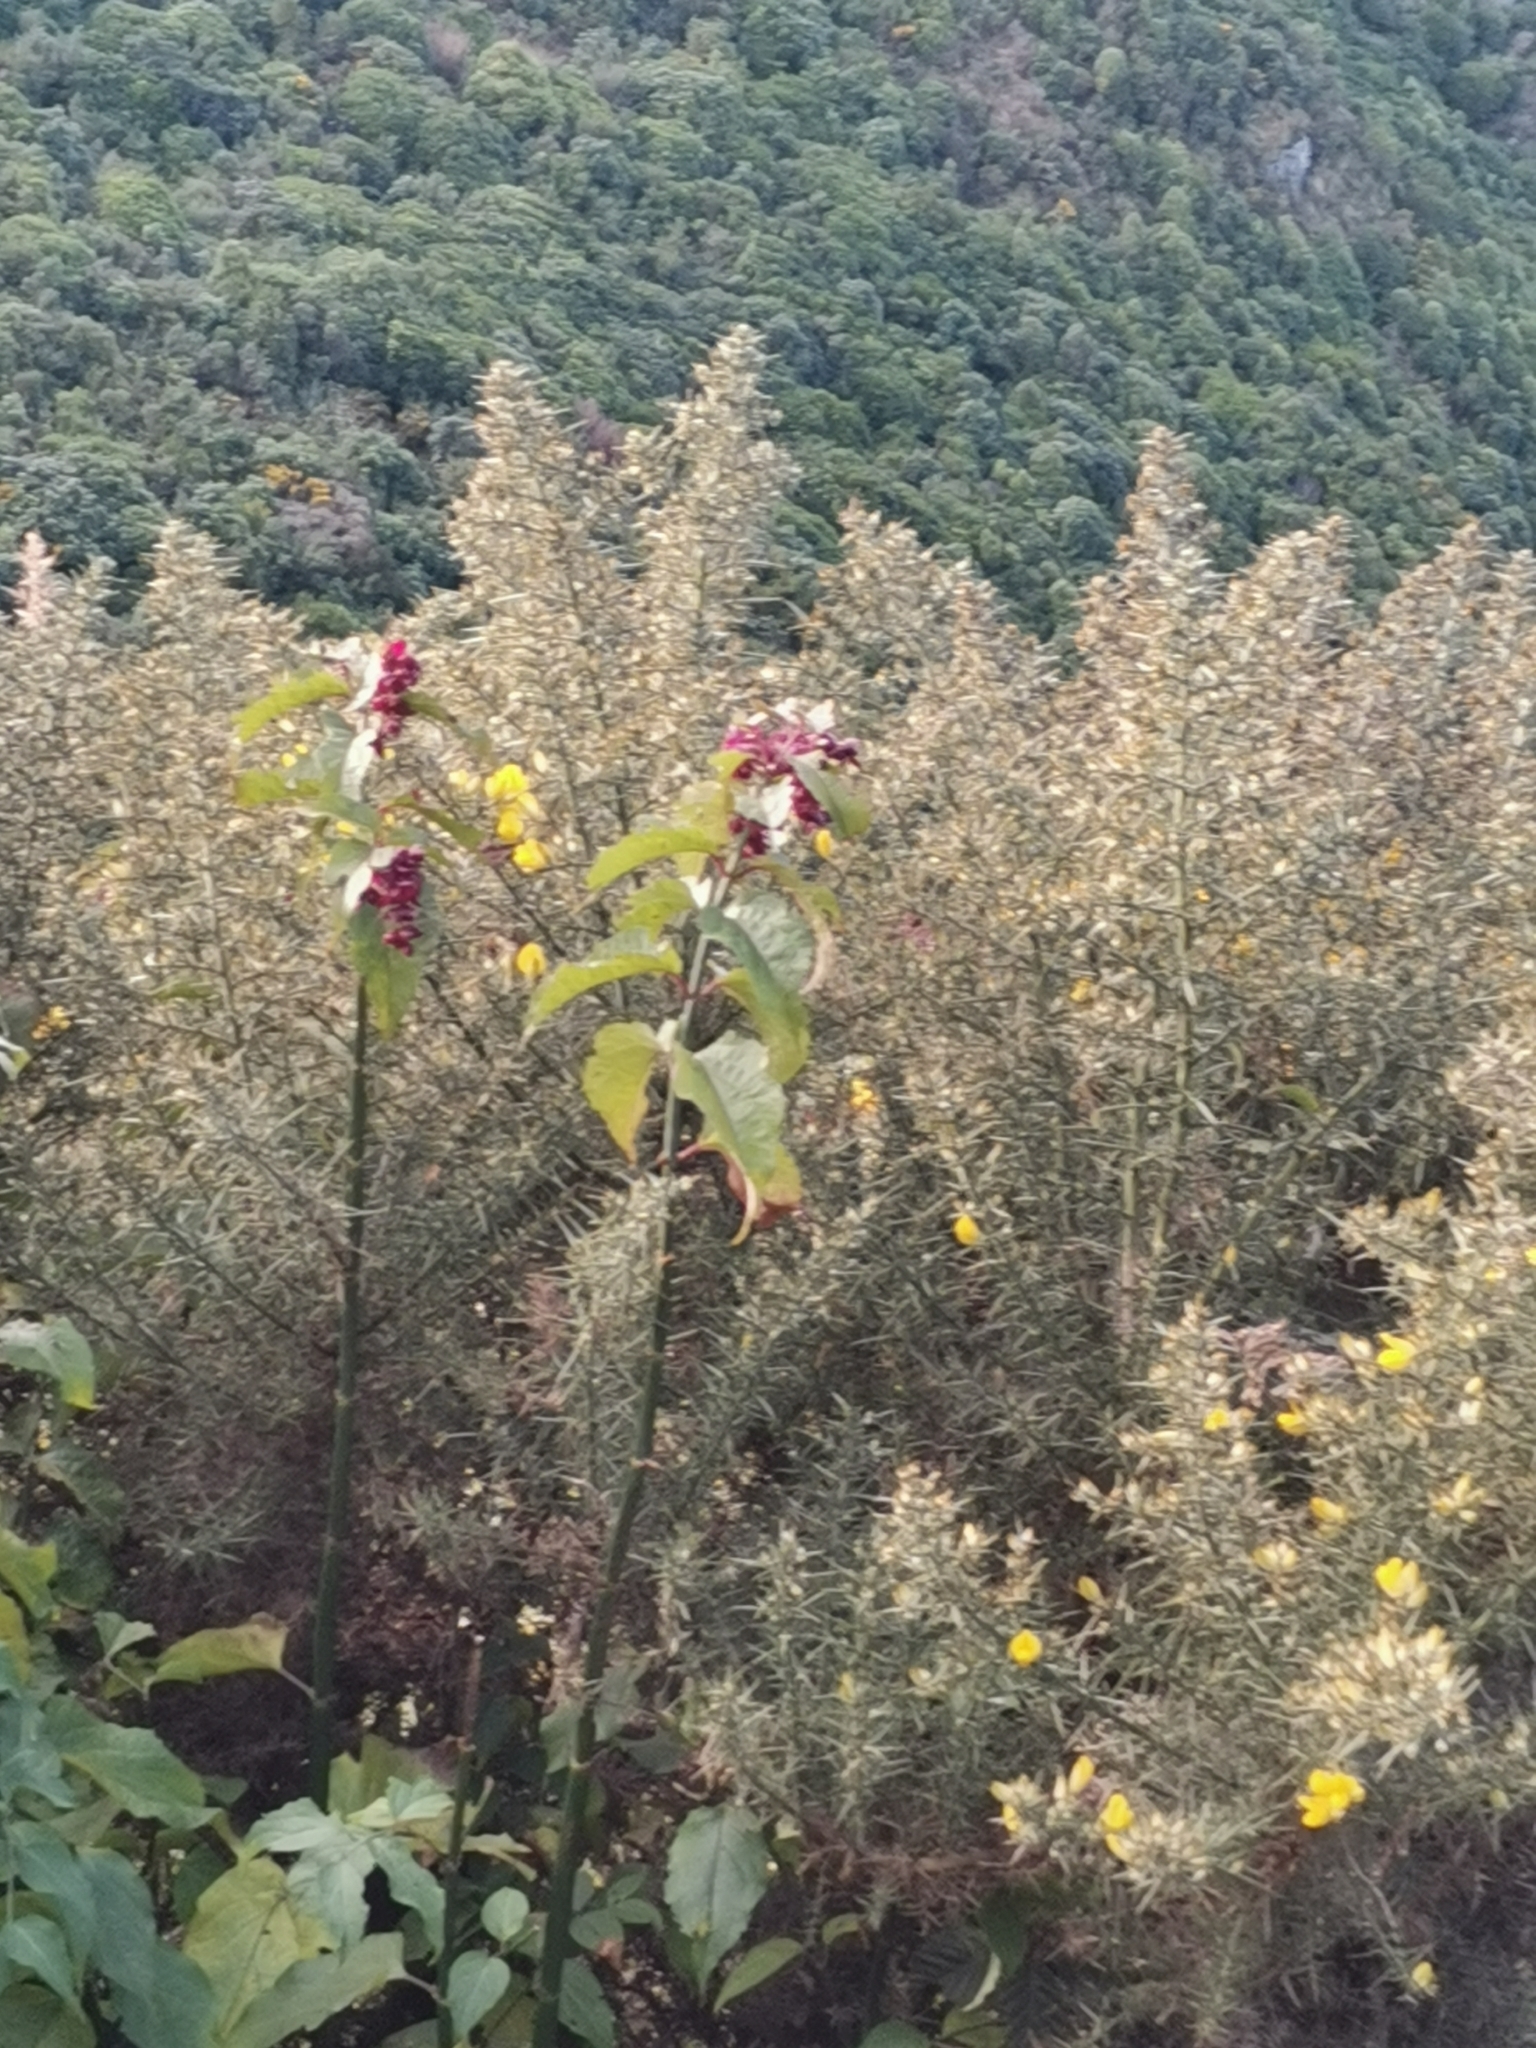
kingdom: Plantae
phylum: Tracheophyta
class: Magnoliopsida
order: Dipsacales
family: Caprifoliaceae
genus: Leycesteria
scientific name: Leycesteria formosa
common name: Himalayan honeysuckle
